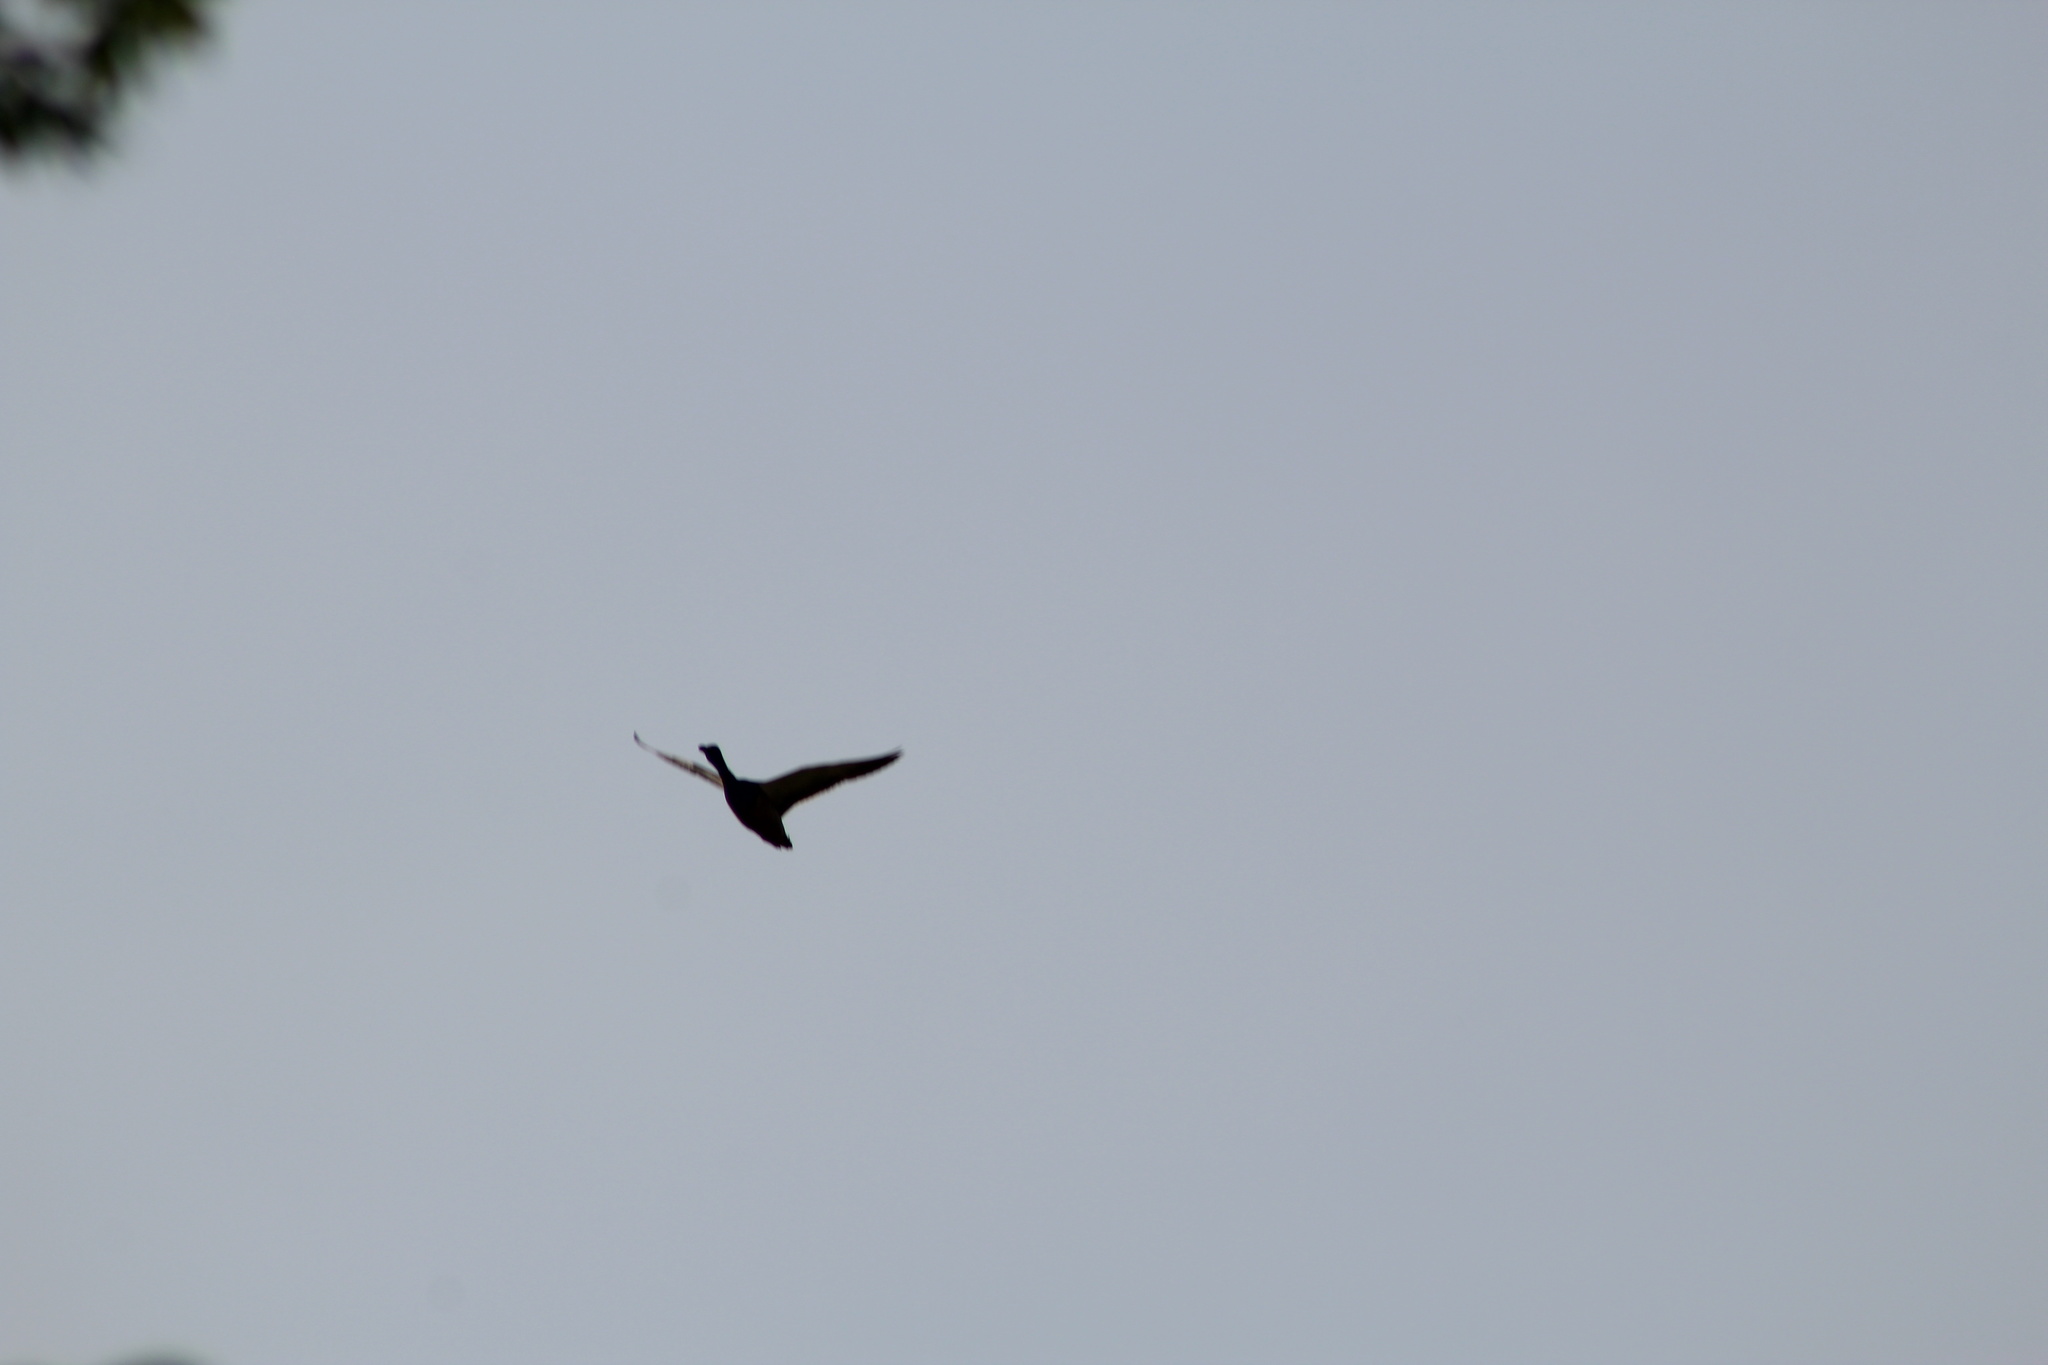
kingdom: Animalia
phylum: Chordata
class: Aves
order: Anseriformes
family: Anatidae
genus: Branta
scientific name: Branta canadensis
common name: Canada goose
